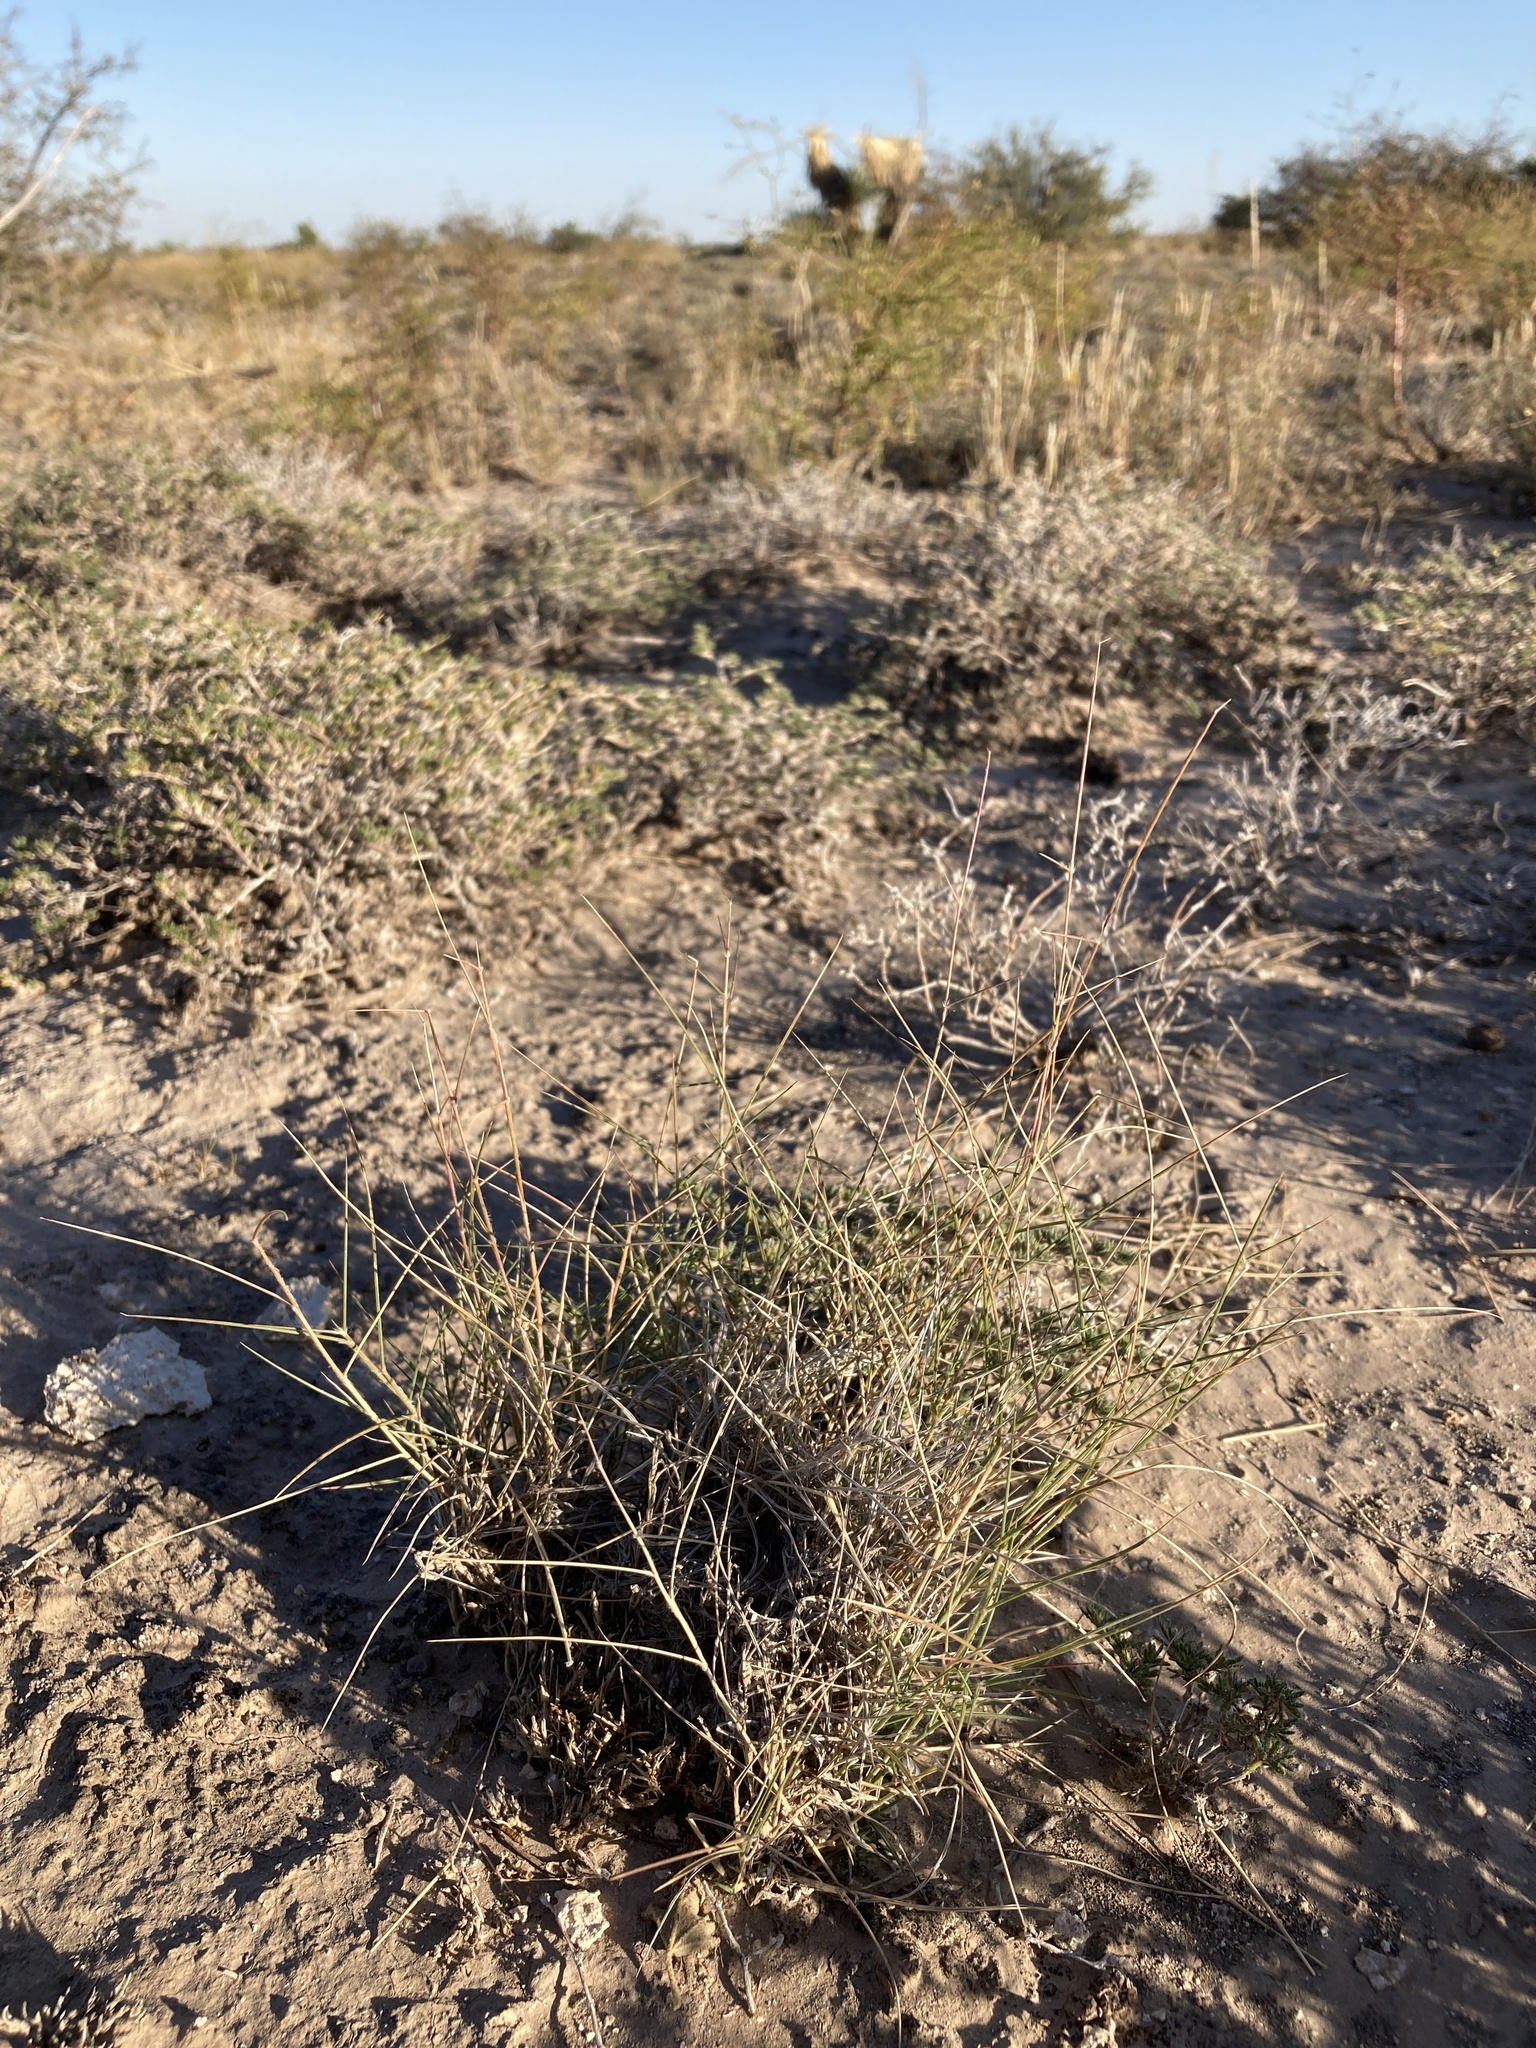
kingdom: Plantae
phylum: Tracheophyta
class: Liliopsida
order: Poales
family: Poaceae
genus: Sporobolus
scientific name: Sporobolus nealleyi
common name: Gyp grass
